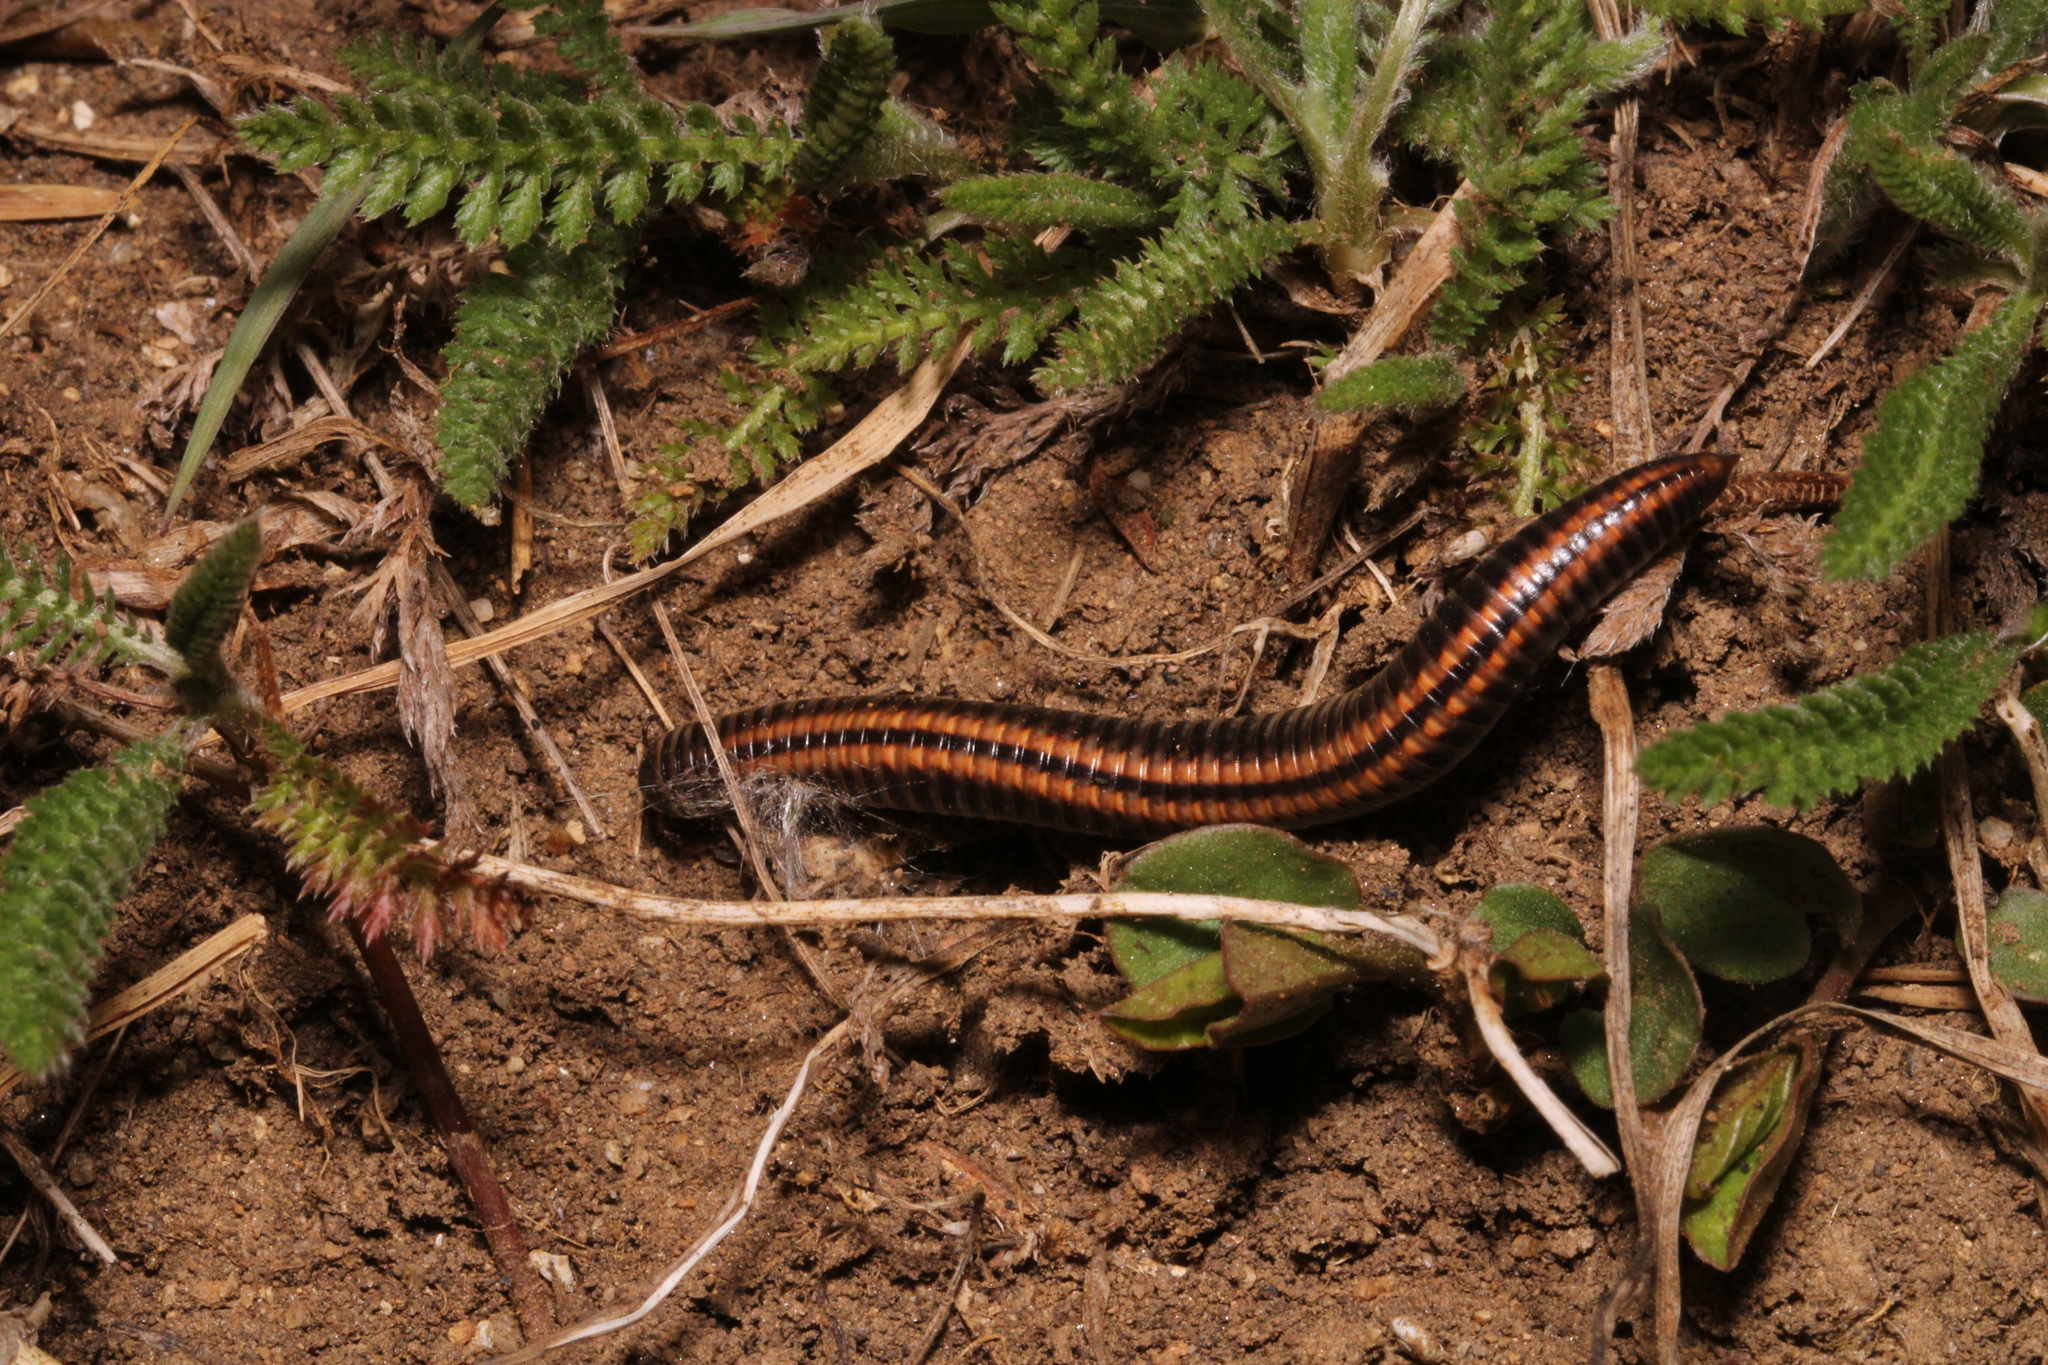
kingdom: Animalia
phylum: Arthropoda
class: Diplopoda
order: Julida
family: Julidae
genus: Ommatoiulus
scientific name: Ommatoiulus sabulosus
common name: Striped millipede
